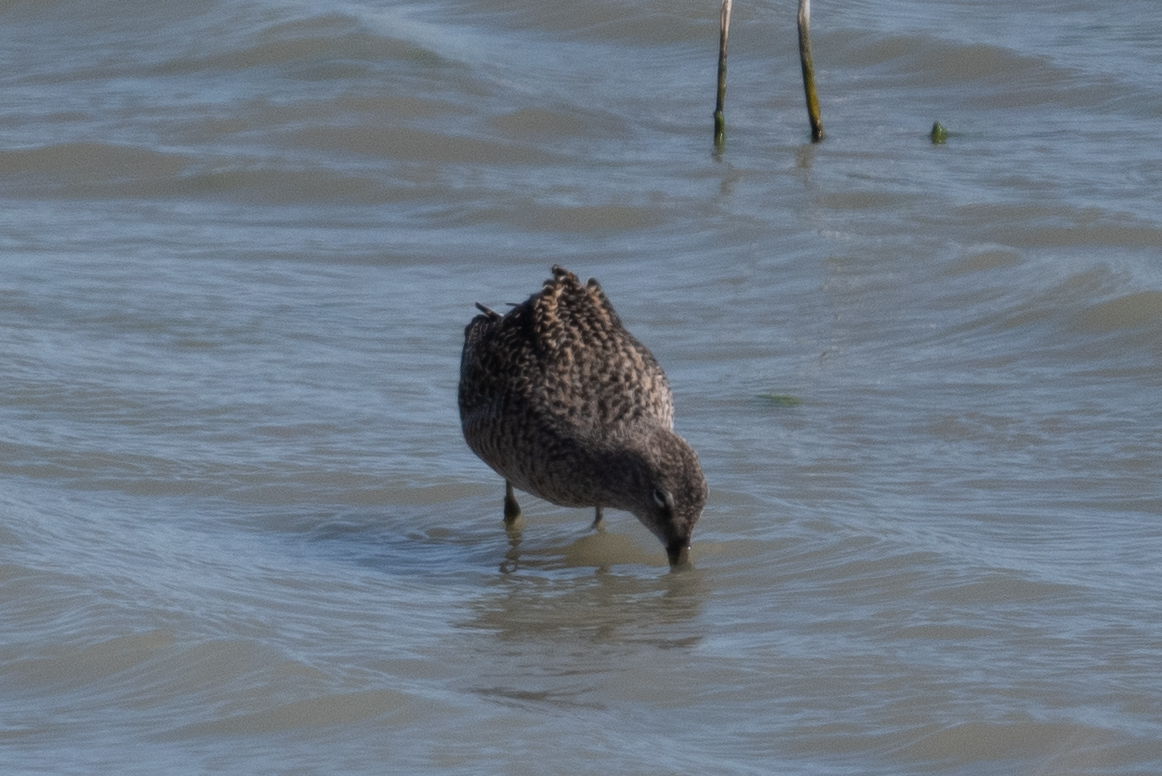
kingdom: Animalia
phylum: Chordata
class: Aves
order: Charadriiformes
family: Scolopacidae
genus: Limnodromus
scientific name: Limnodromus
